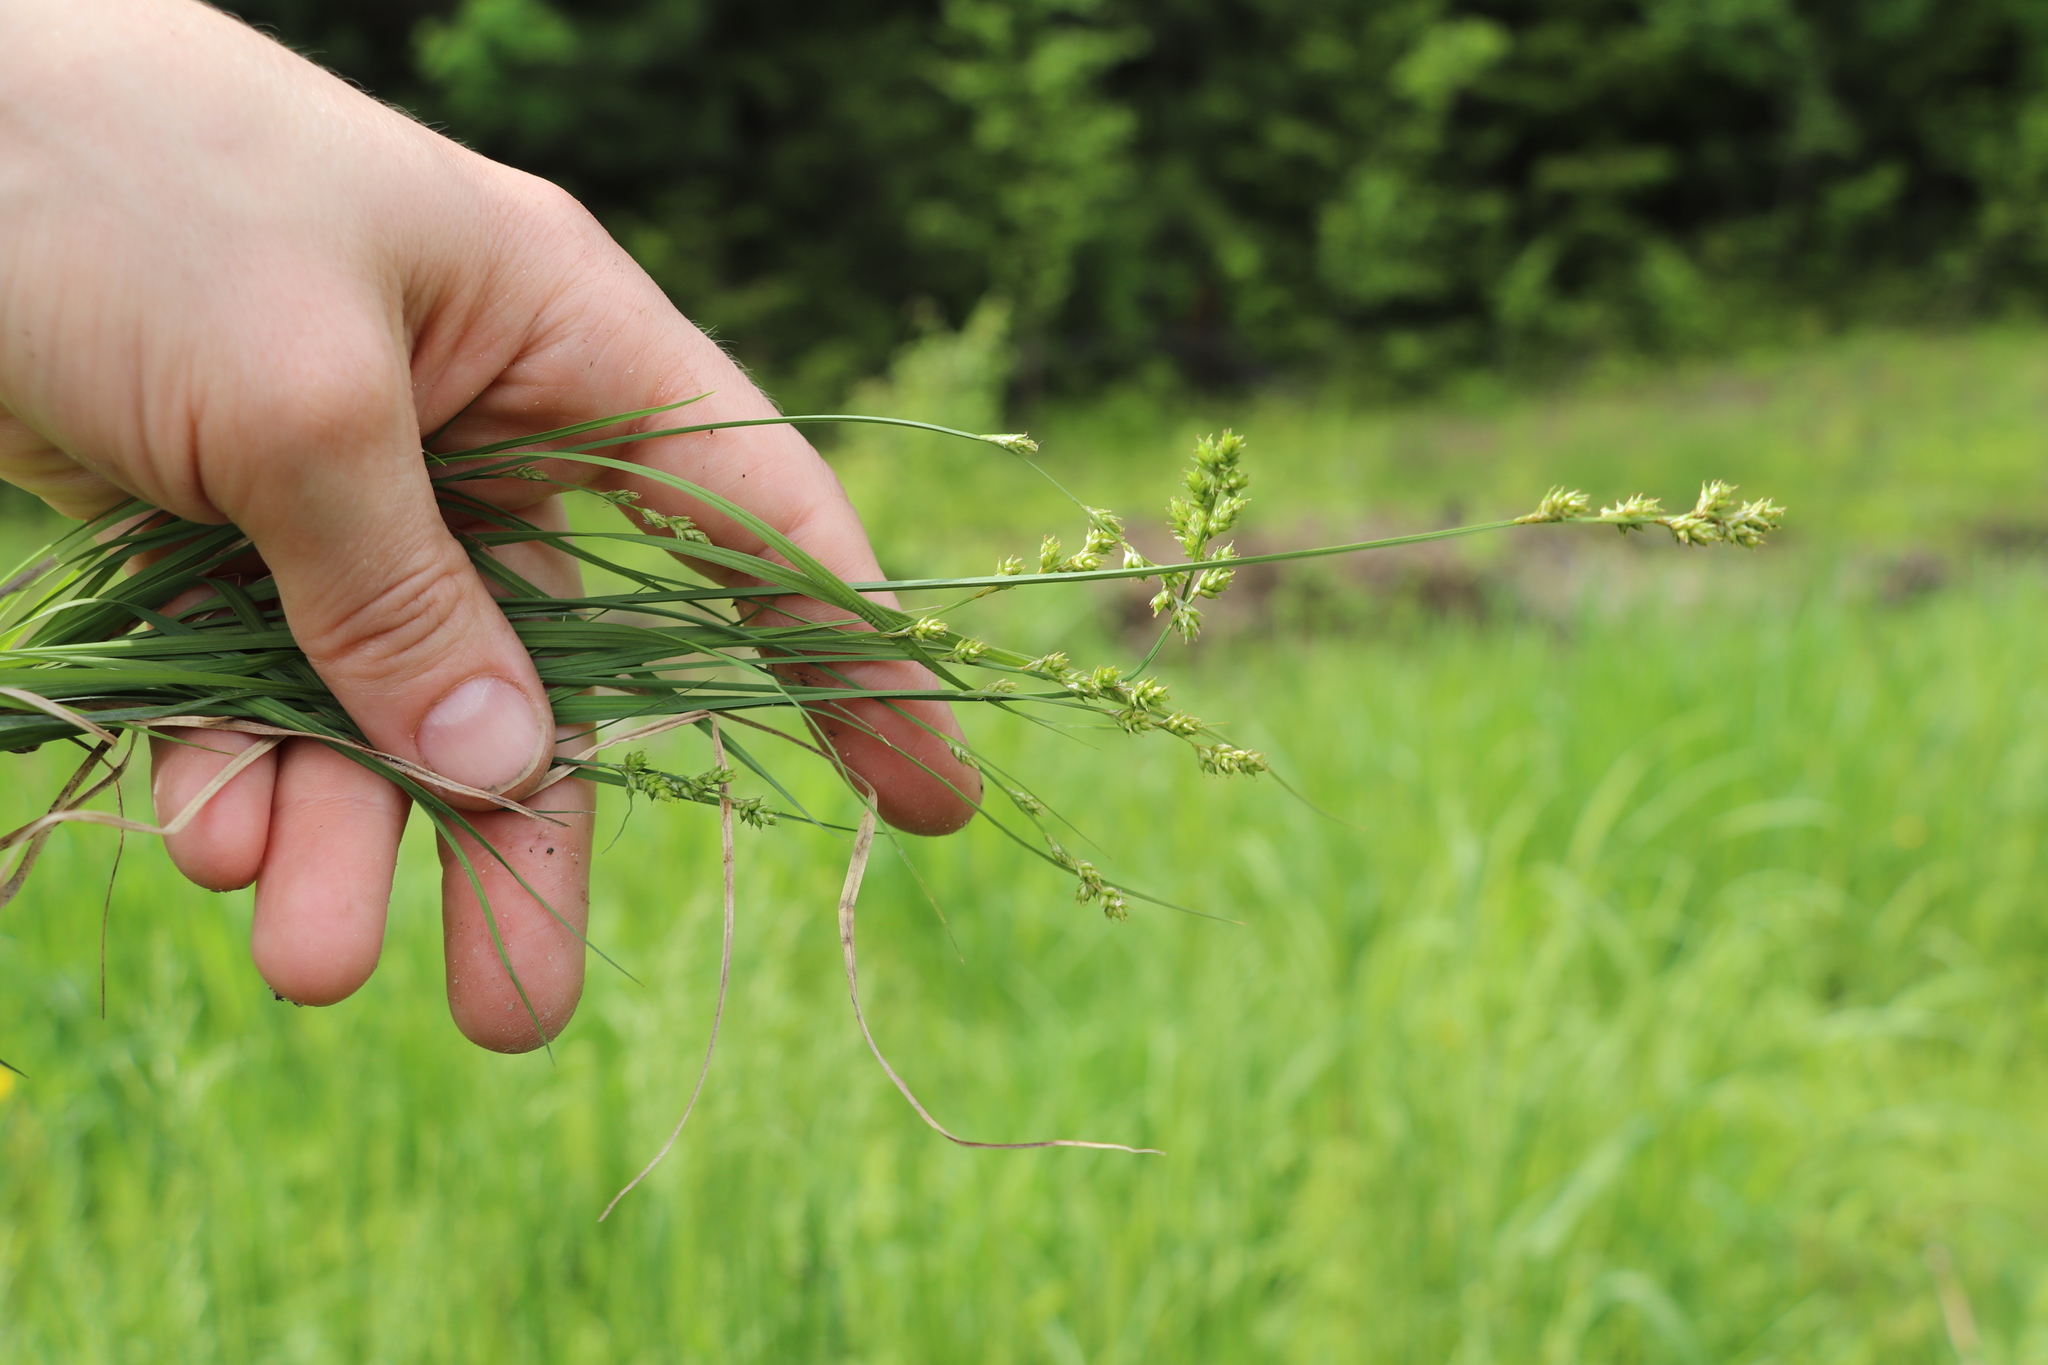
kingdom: Plantae
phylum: Tracheophyta
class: Liliopsida
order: Poales
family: Cyperaceae
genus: Carex
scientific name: Carex canescens
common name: White sedge
